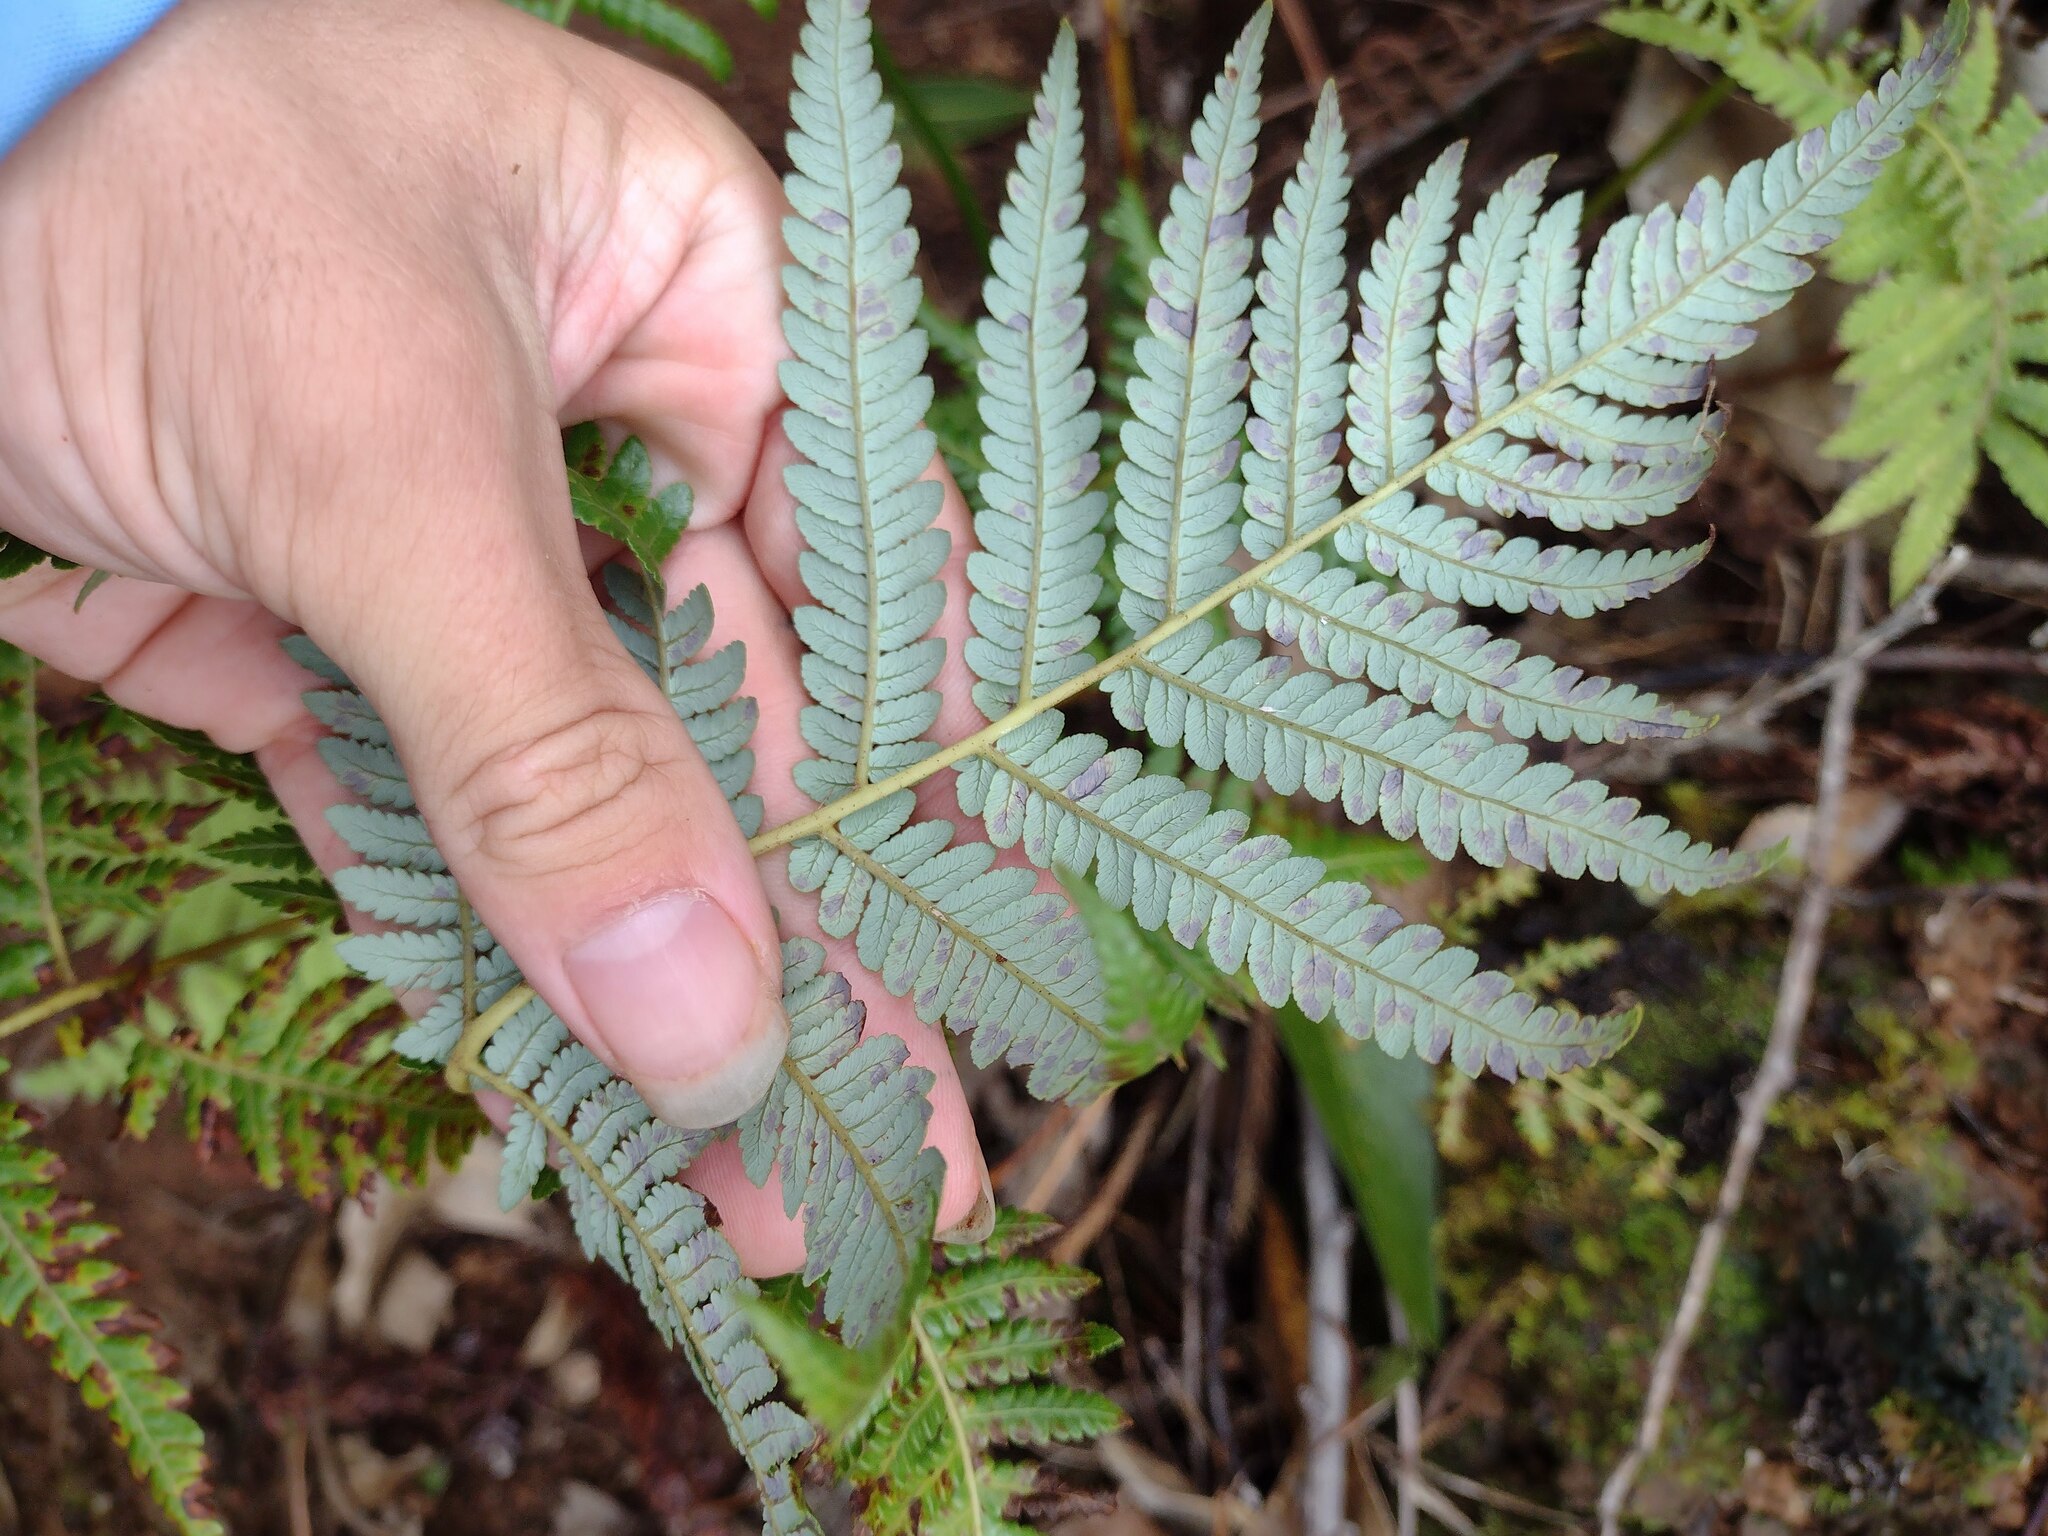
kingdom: Plantae
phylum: Tracheophyta
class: Polypodiopsida
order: Cyatheales
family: Cibotiaceae
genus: Cibotium
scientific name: Cibotium glaucum
